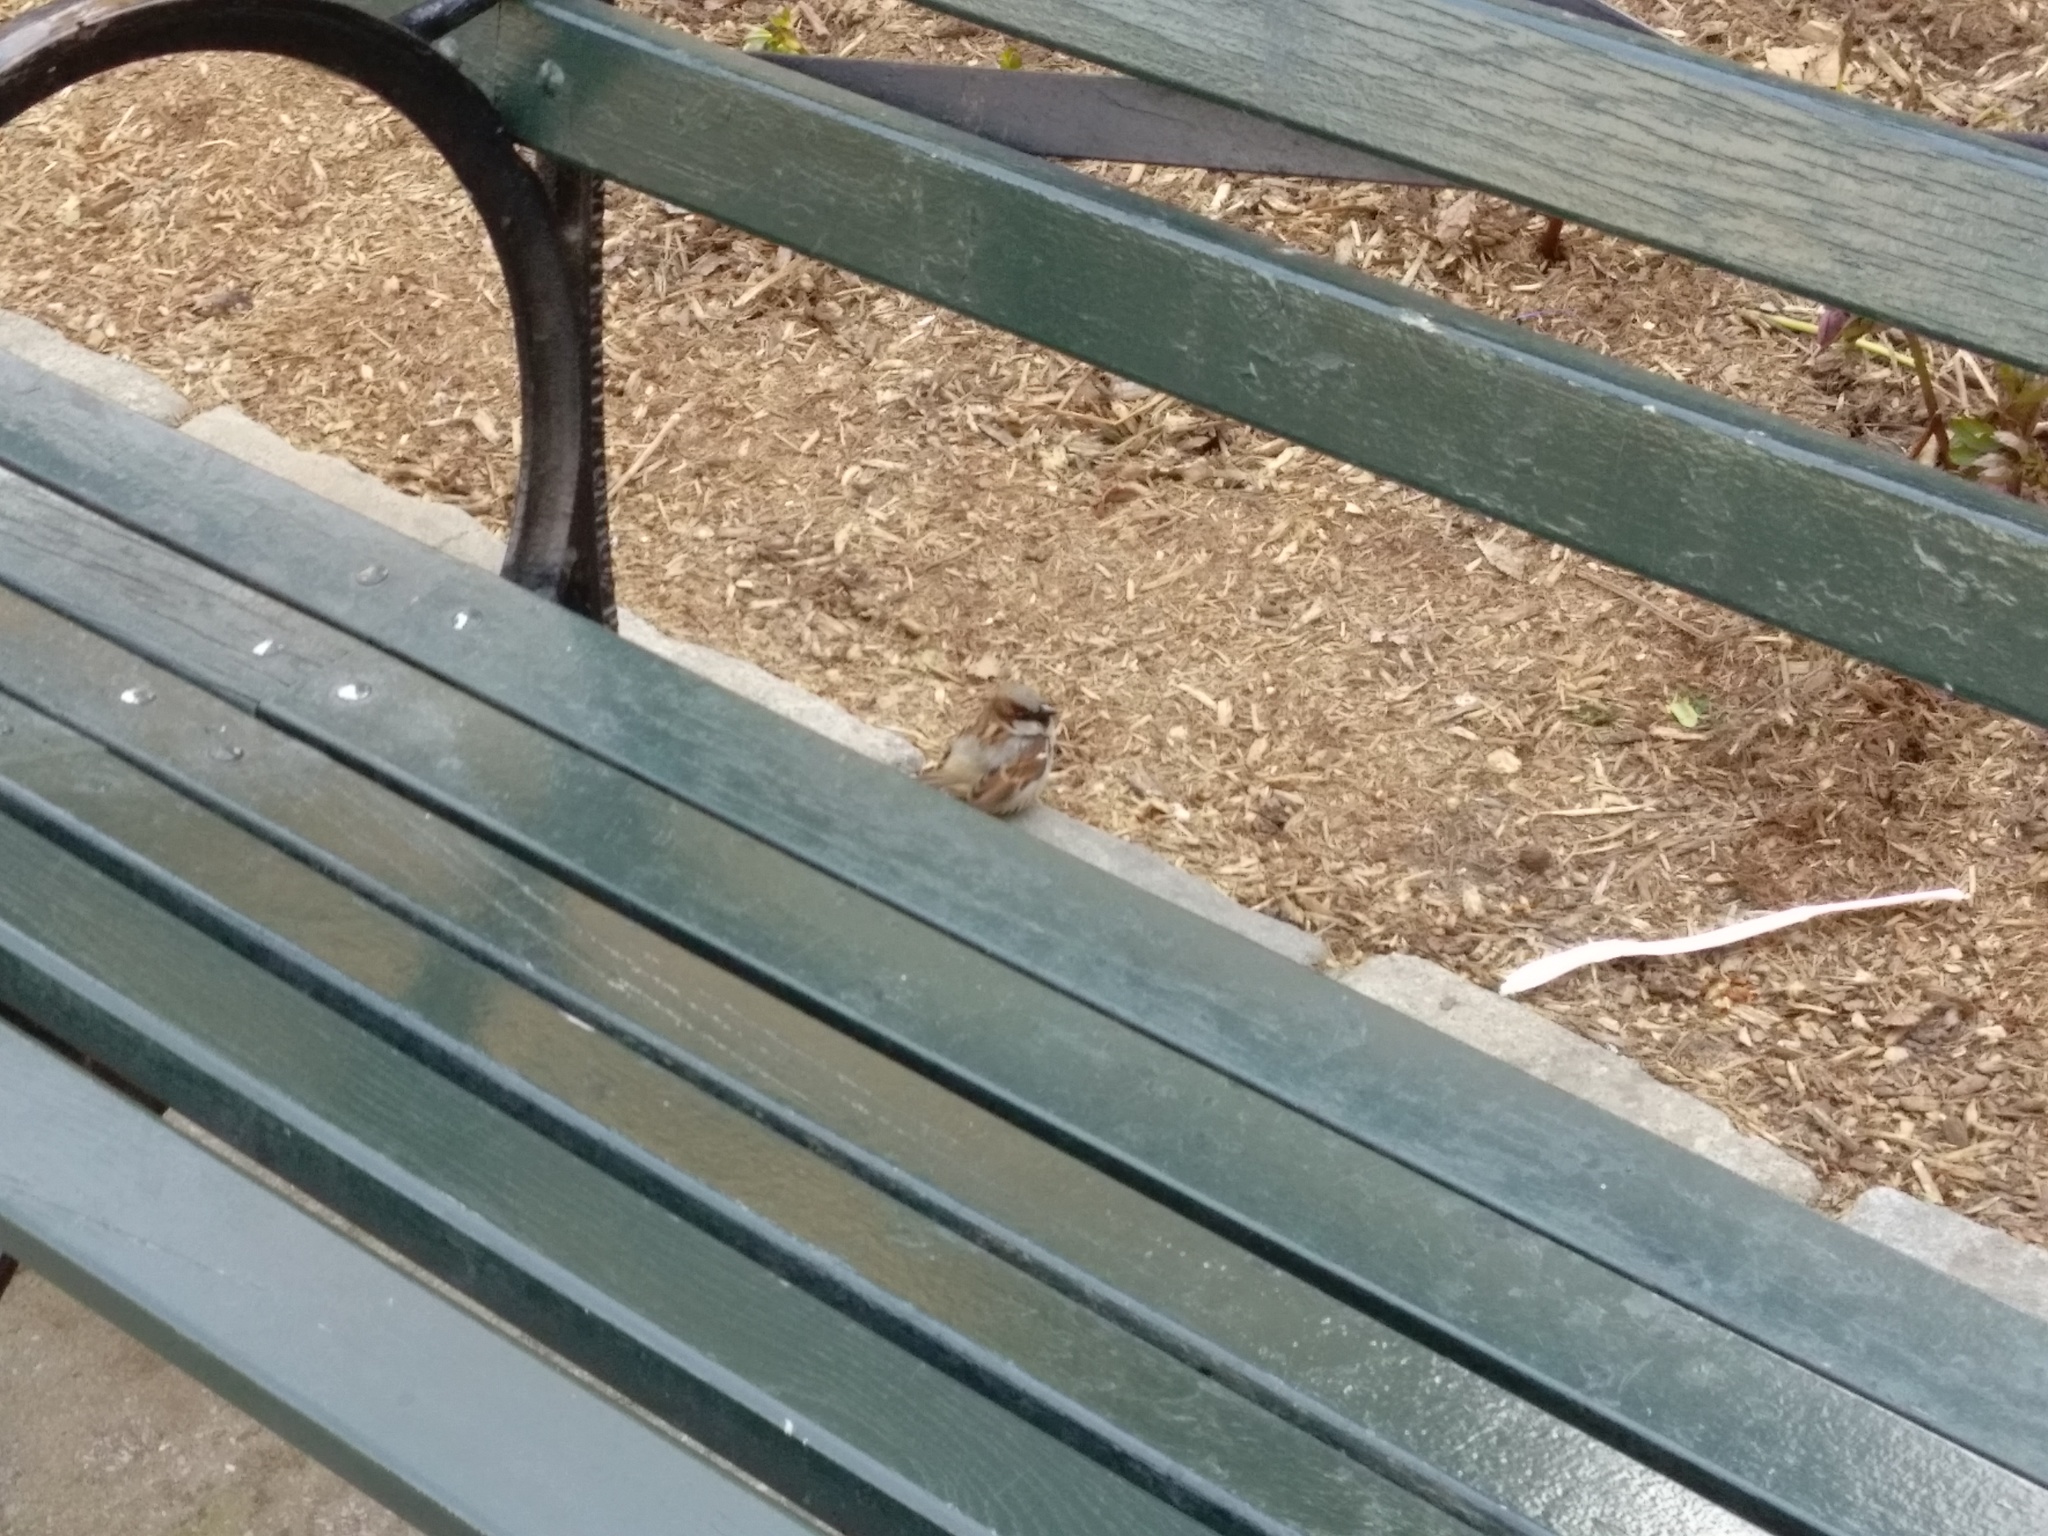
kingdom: Animalia
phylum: Chordata
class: Aves
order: Passeriformes
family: Passeridae
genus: Passer
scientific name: Passer domesticus
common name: House sparrow
